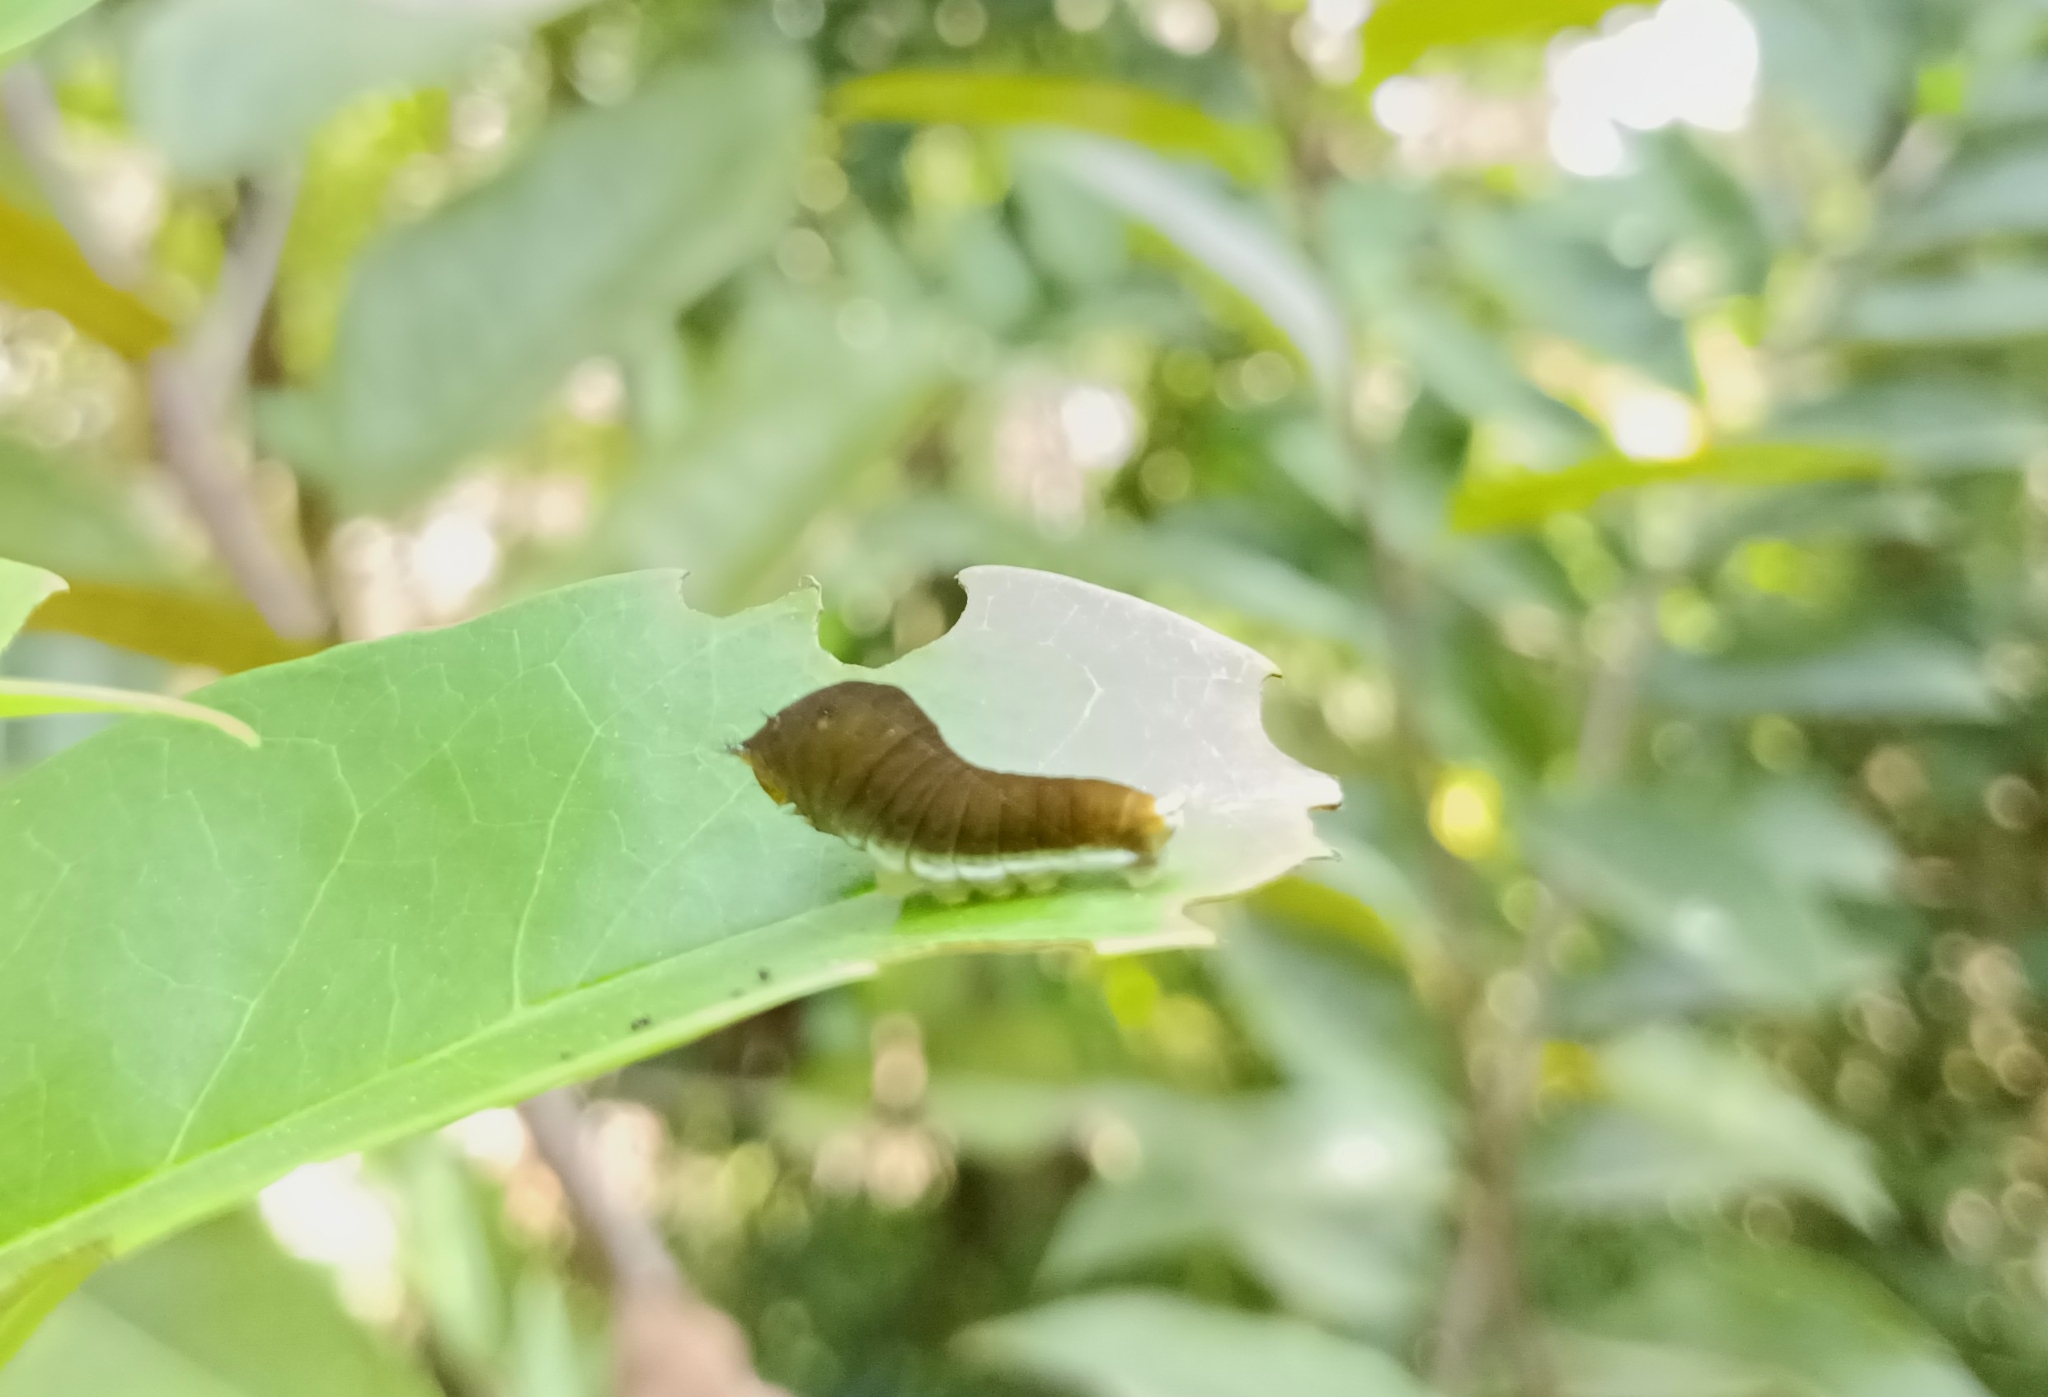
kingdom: Animalia
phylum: Arthropoda
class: Insecta
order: Lepidoptera
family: Papilionidae
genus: Graphium
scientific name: Graphium doson
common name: Common jay
